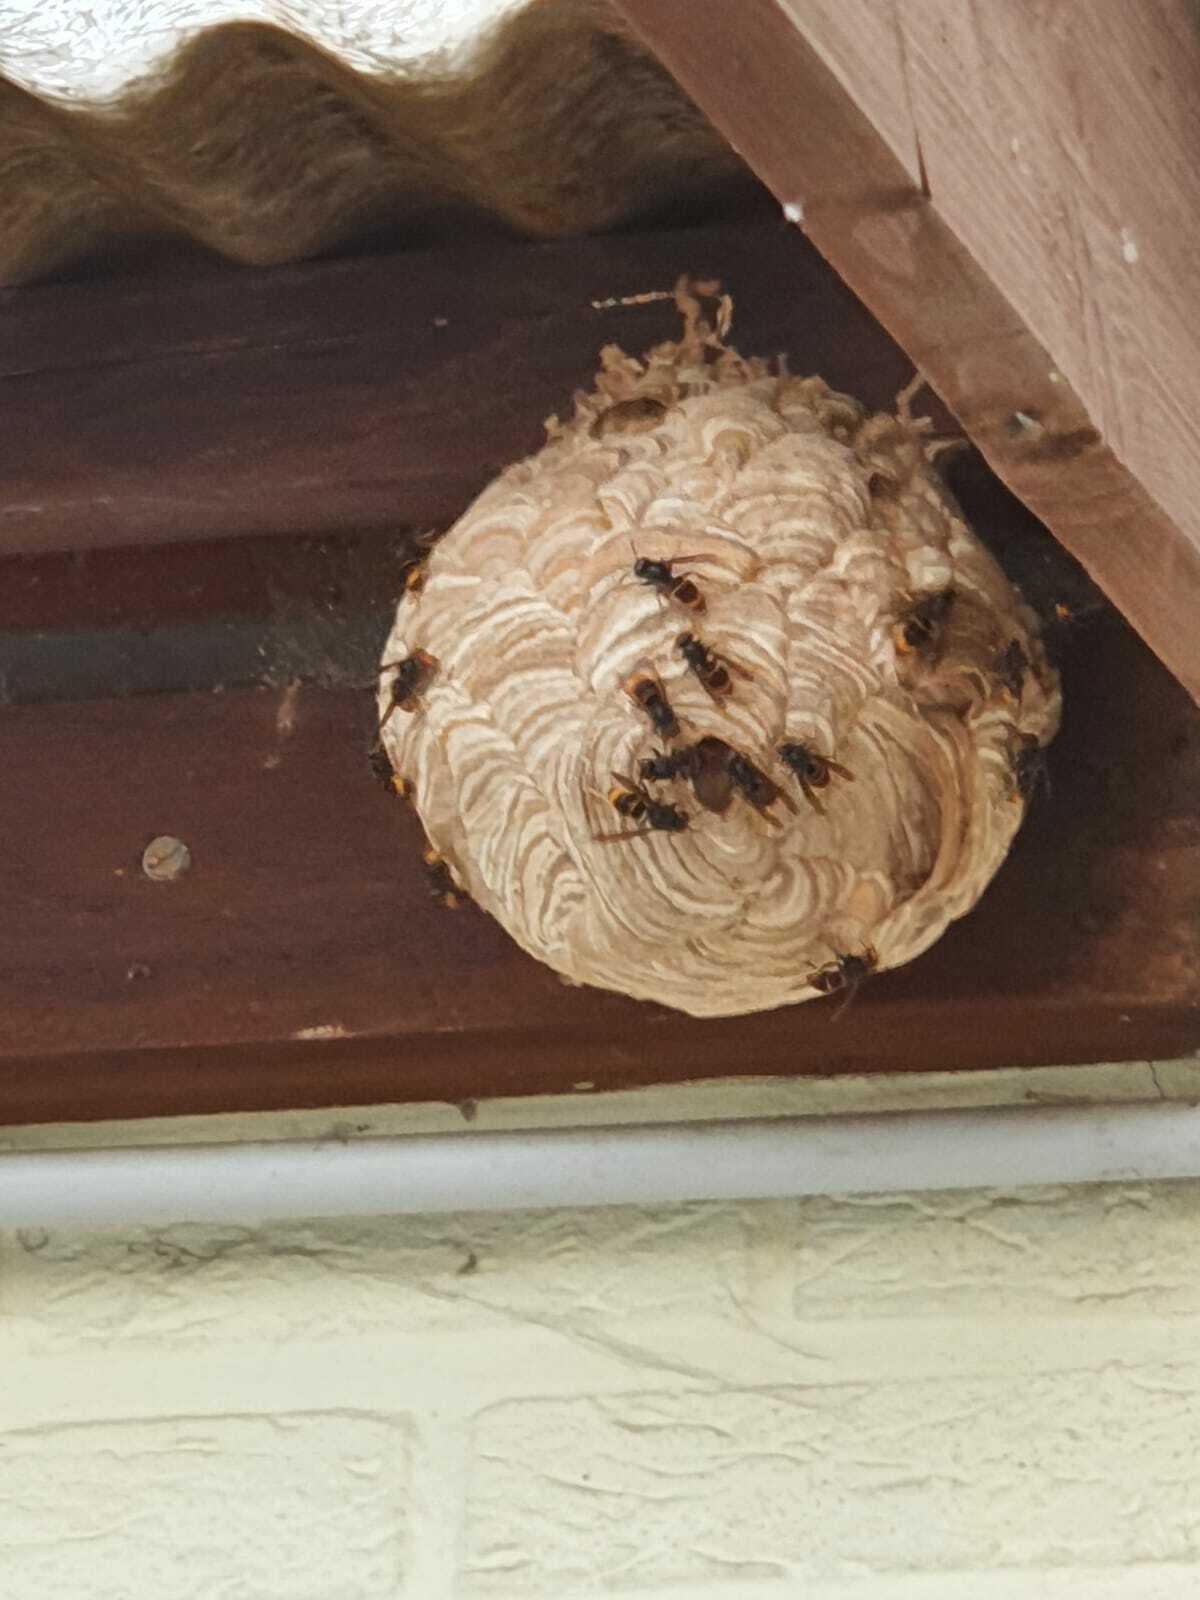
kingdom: Animalia
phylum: Arthropoda
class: Insecta
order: Hymenoptera
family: Vespidae
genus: Vespa
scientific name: Vespa velutina
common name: Asian hornet
